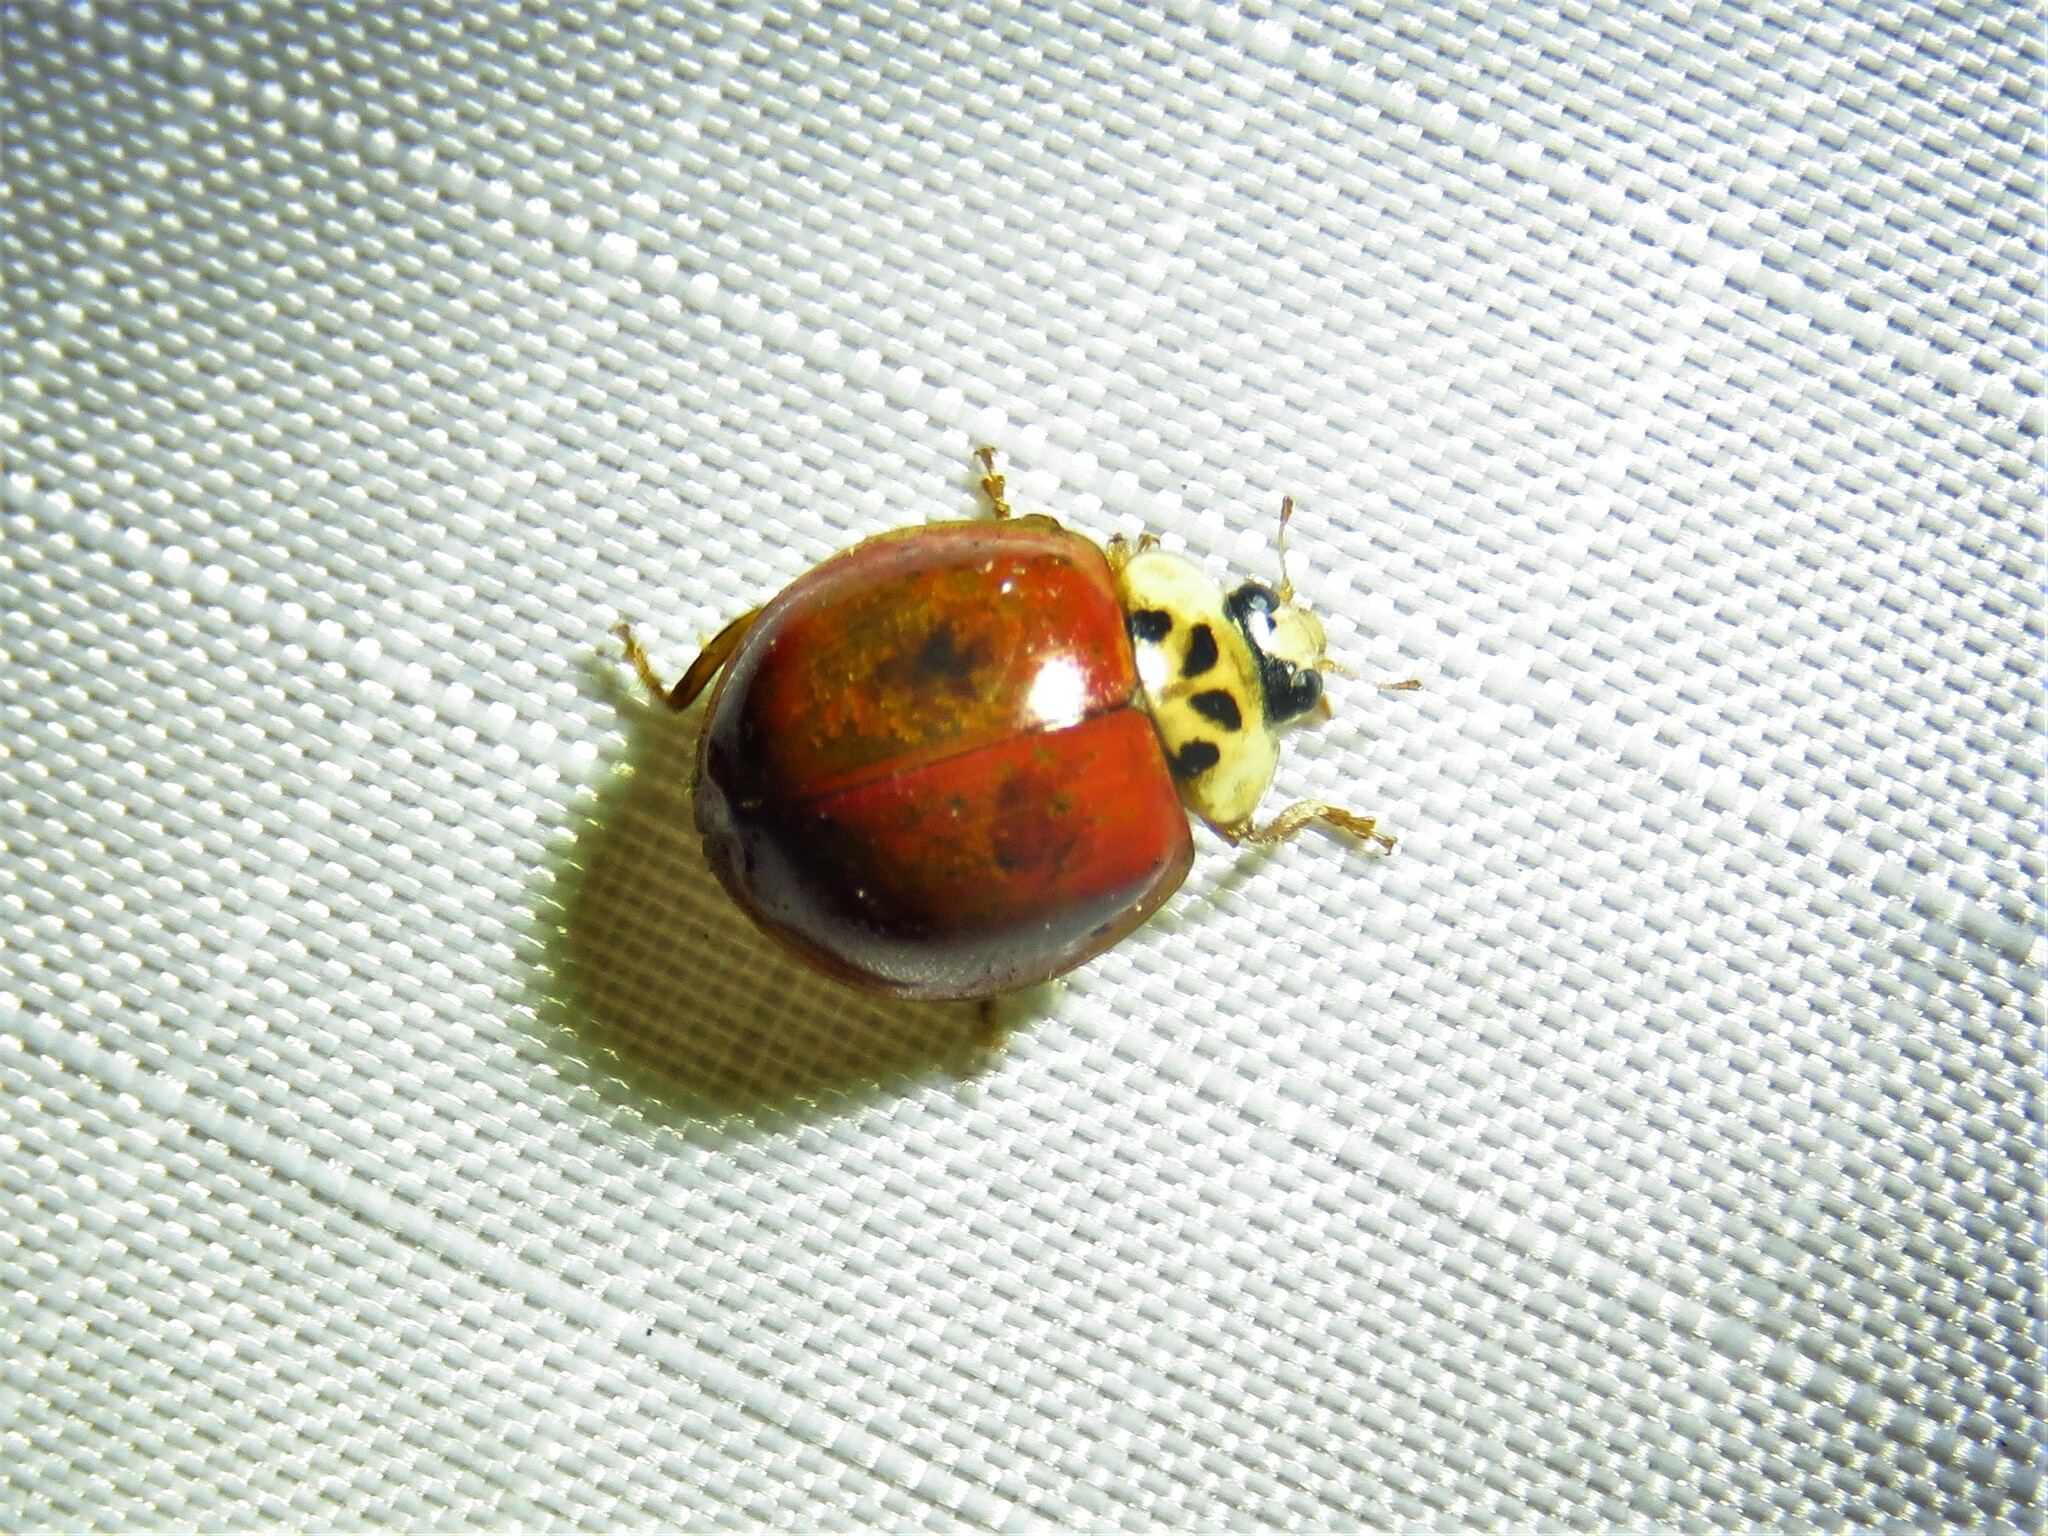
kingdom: Animalia
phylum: Arthropoda
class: Insecta
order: Coleoptera
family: Coccinellidae
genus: Harmonia
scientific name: Harmonia axyridis
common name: Harlequin ladybird
